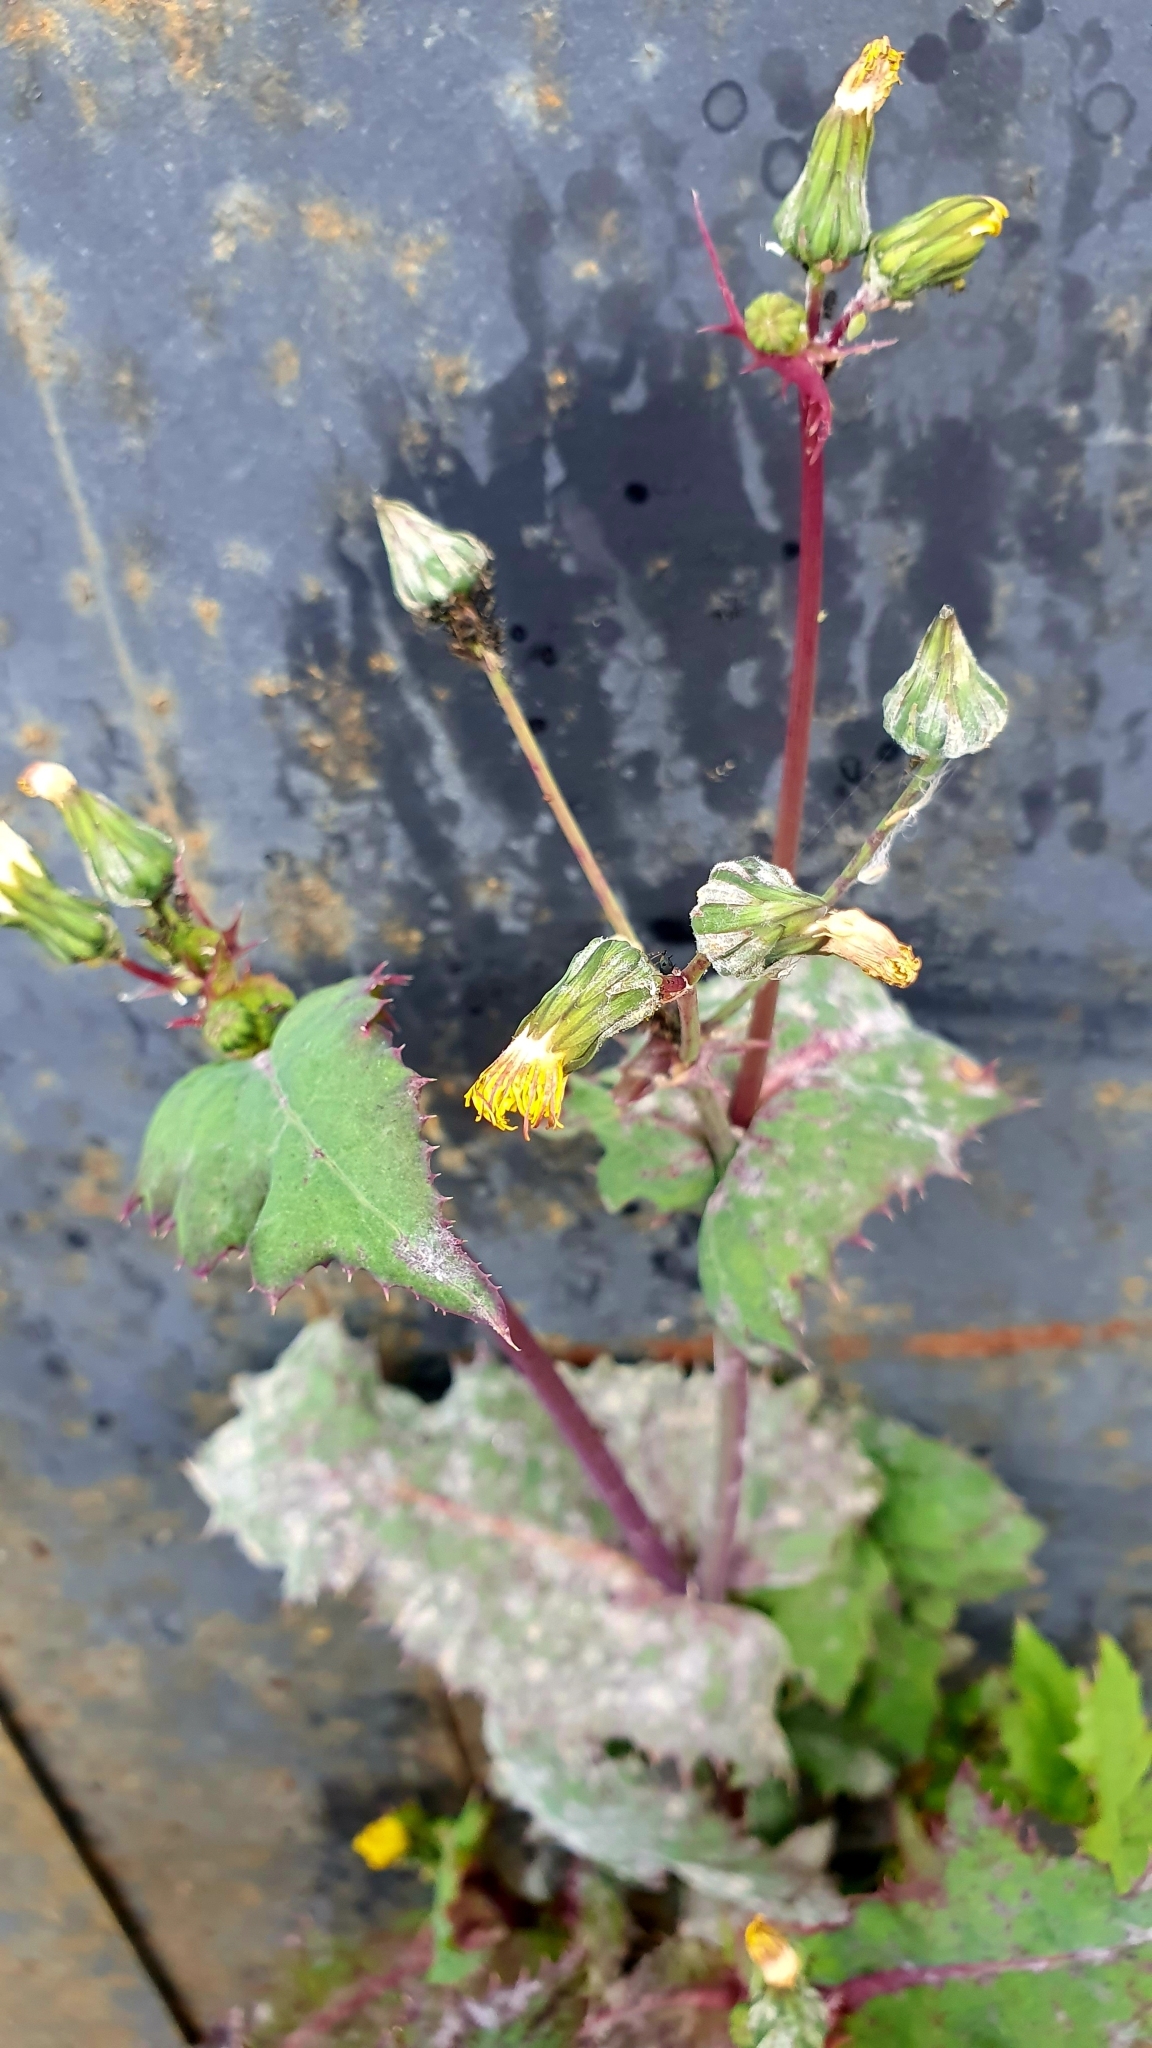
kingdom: Plantae
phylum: Tracheophyta
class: Magnoliopsida
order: Asterales
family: Asteraceae
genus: Sonchus
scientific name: Sonchus oleraceus
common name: Common sowthistle
